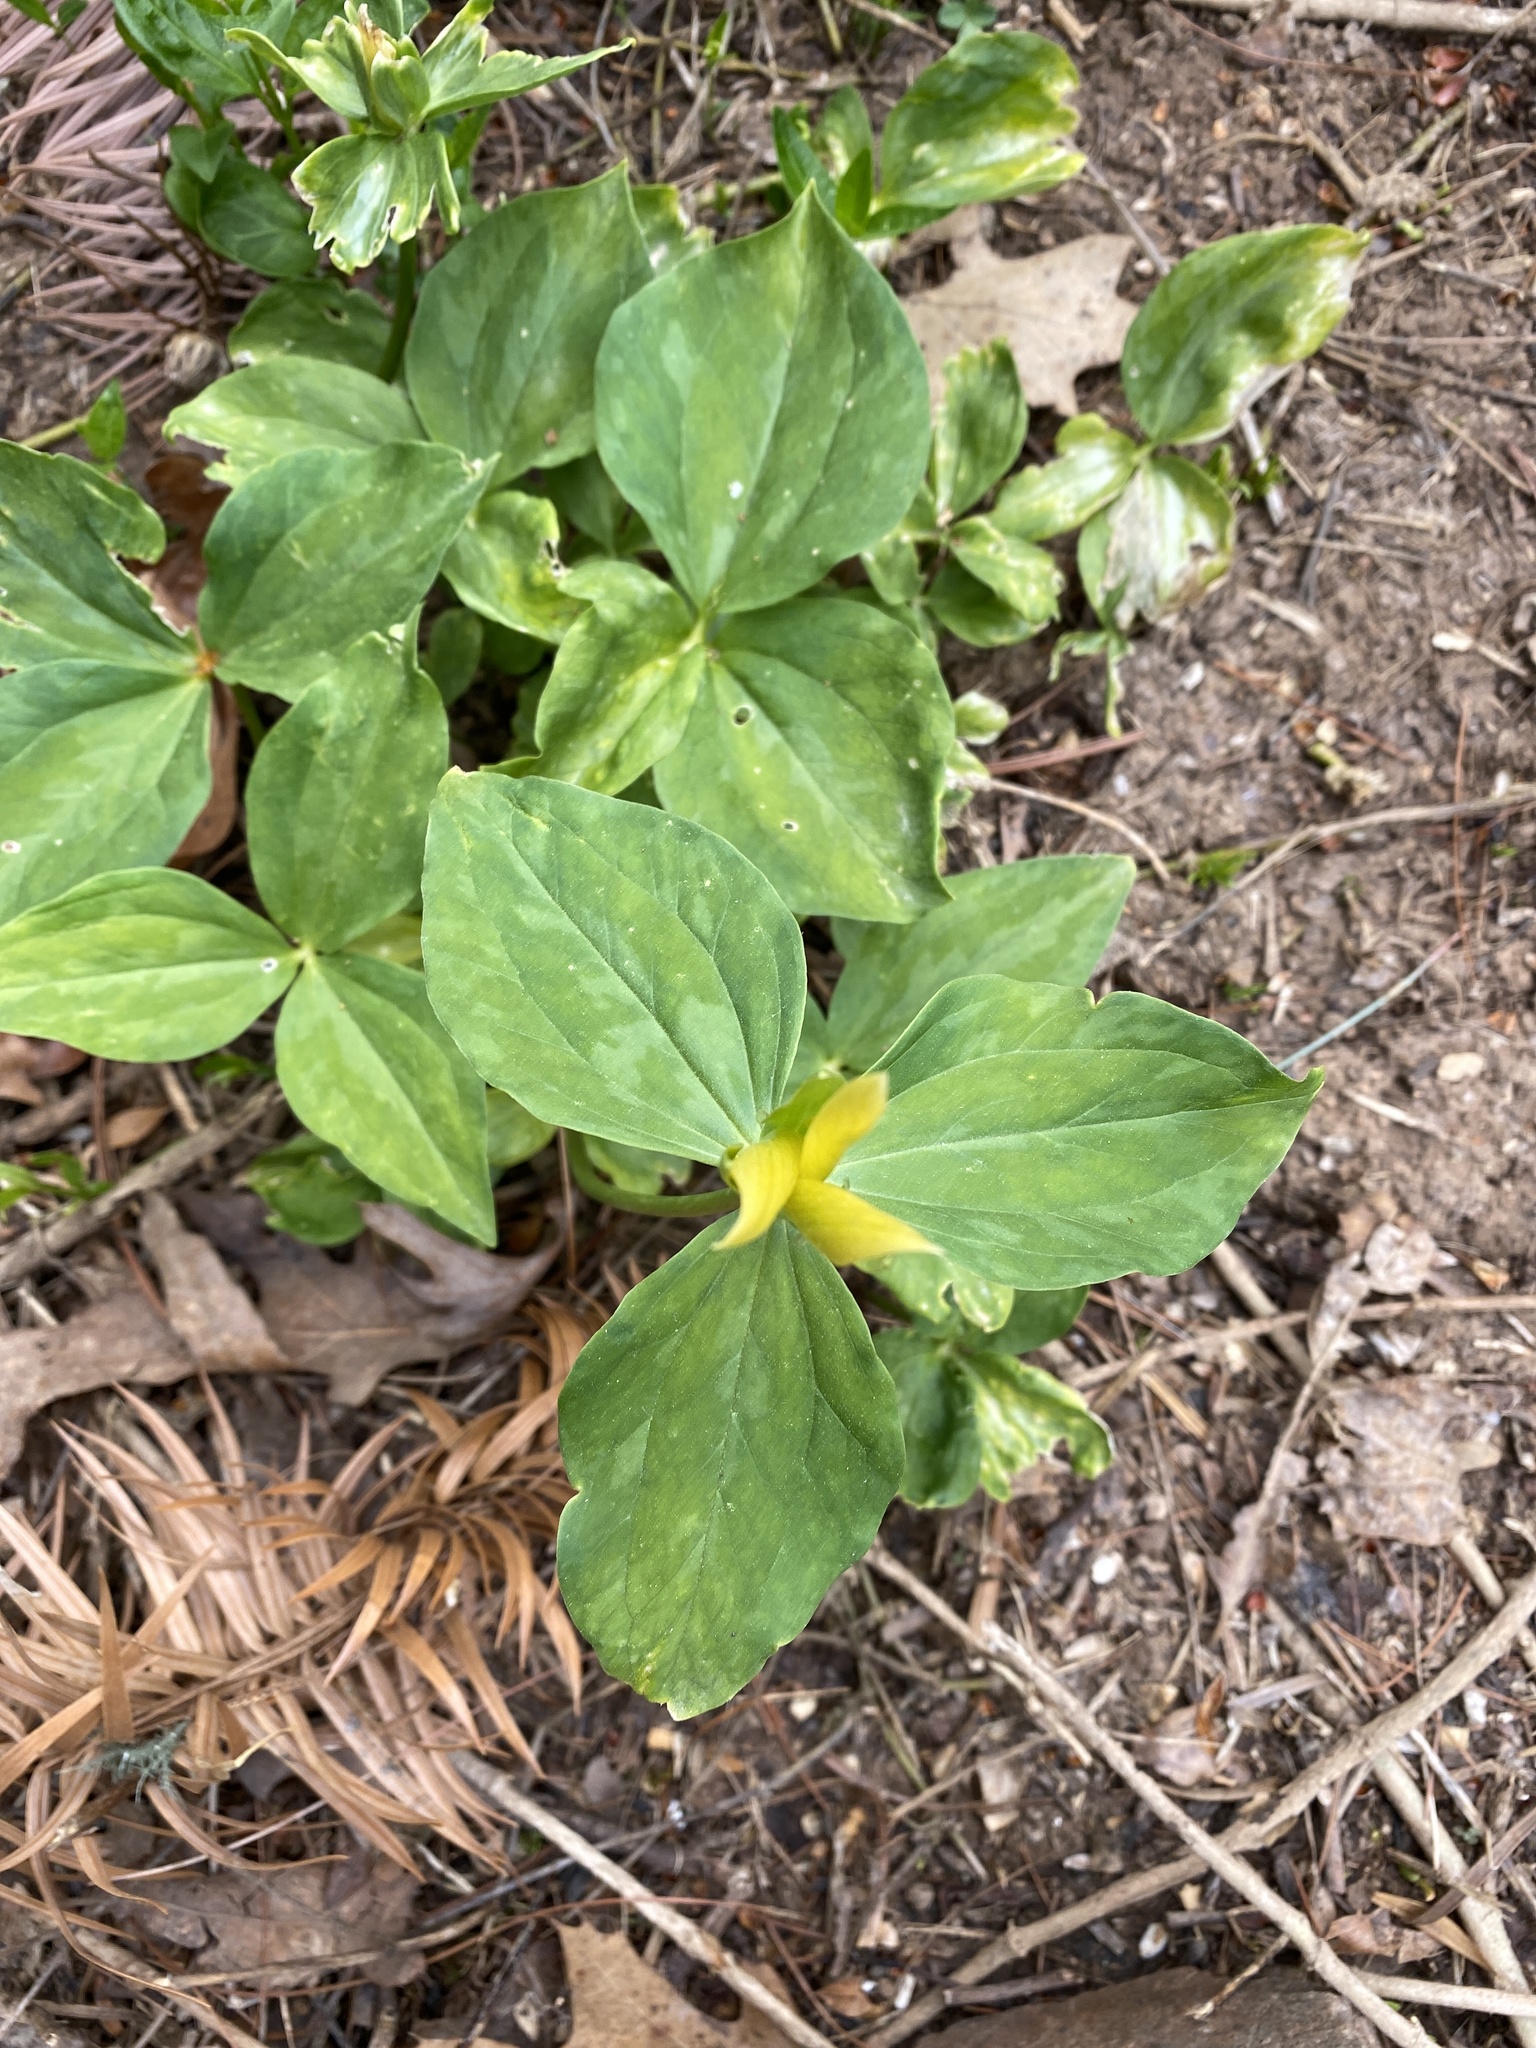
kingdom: Plantae
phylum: Tracheophyta
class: Liliopsida
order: Liliales
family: Melanthiaceae
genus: Trillium
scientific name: Trillium luteum
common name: Wax trillium
